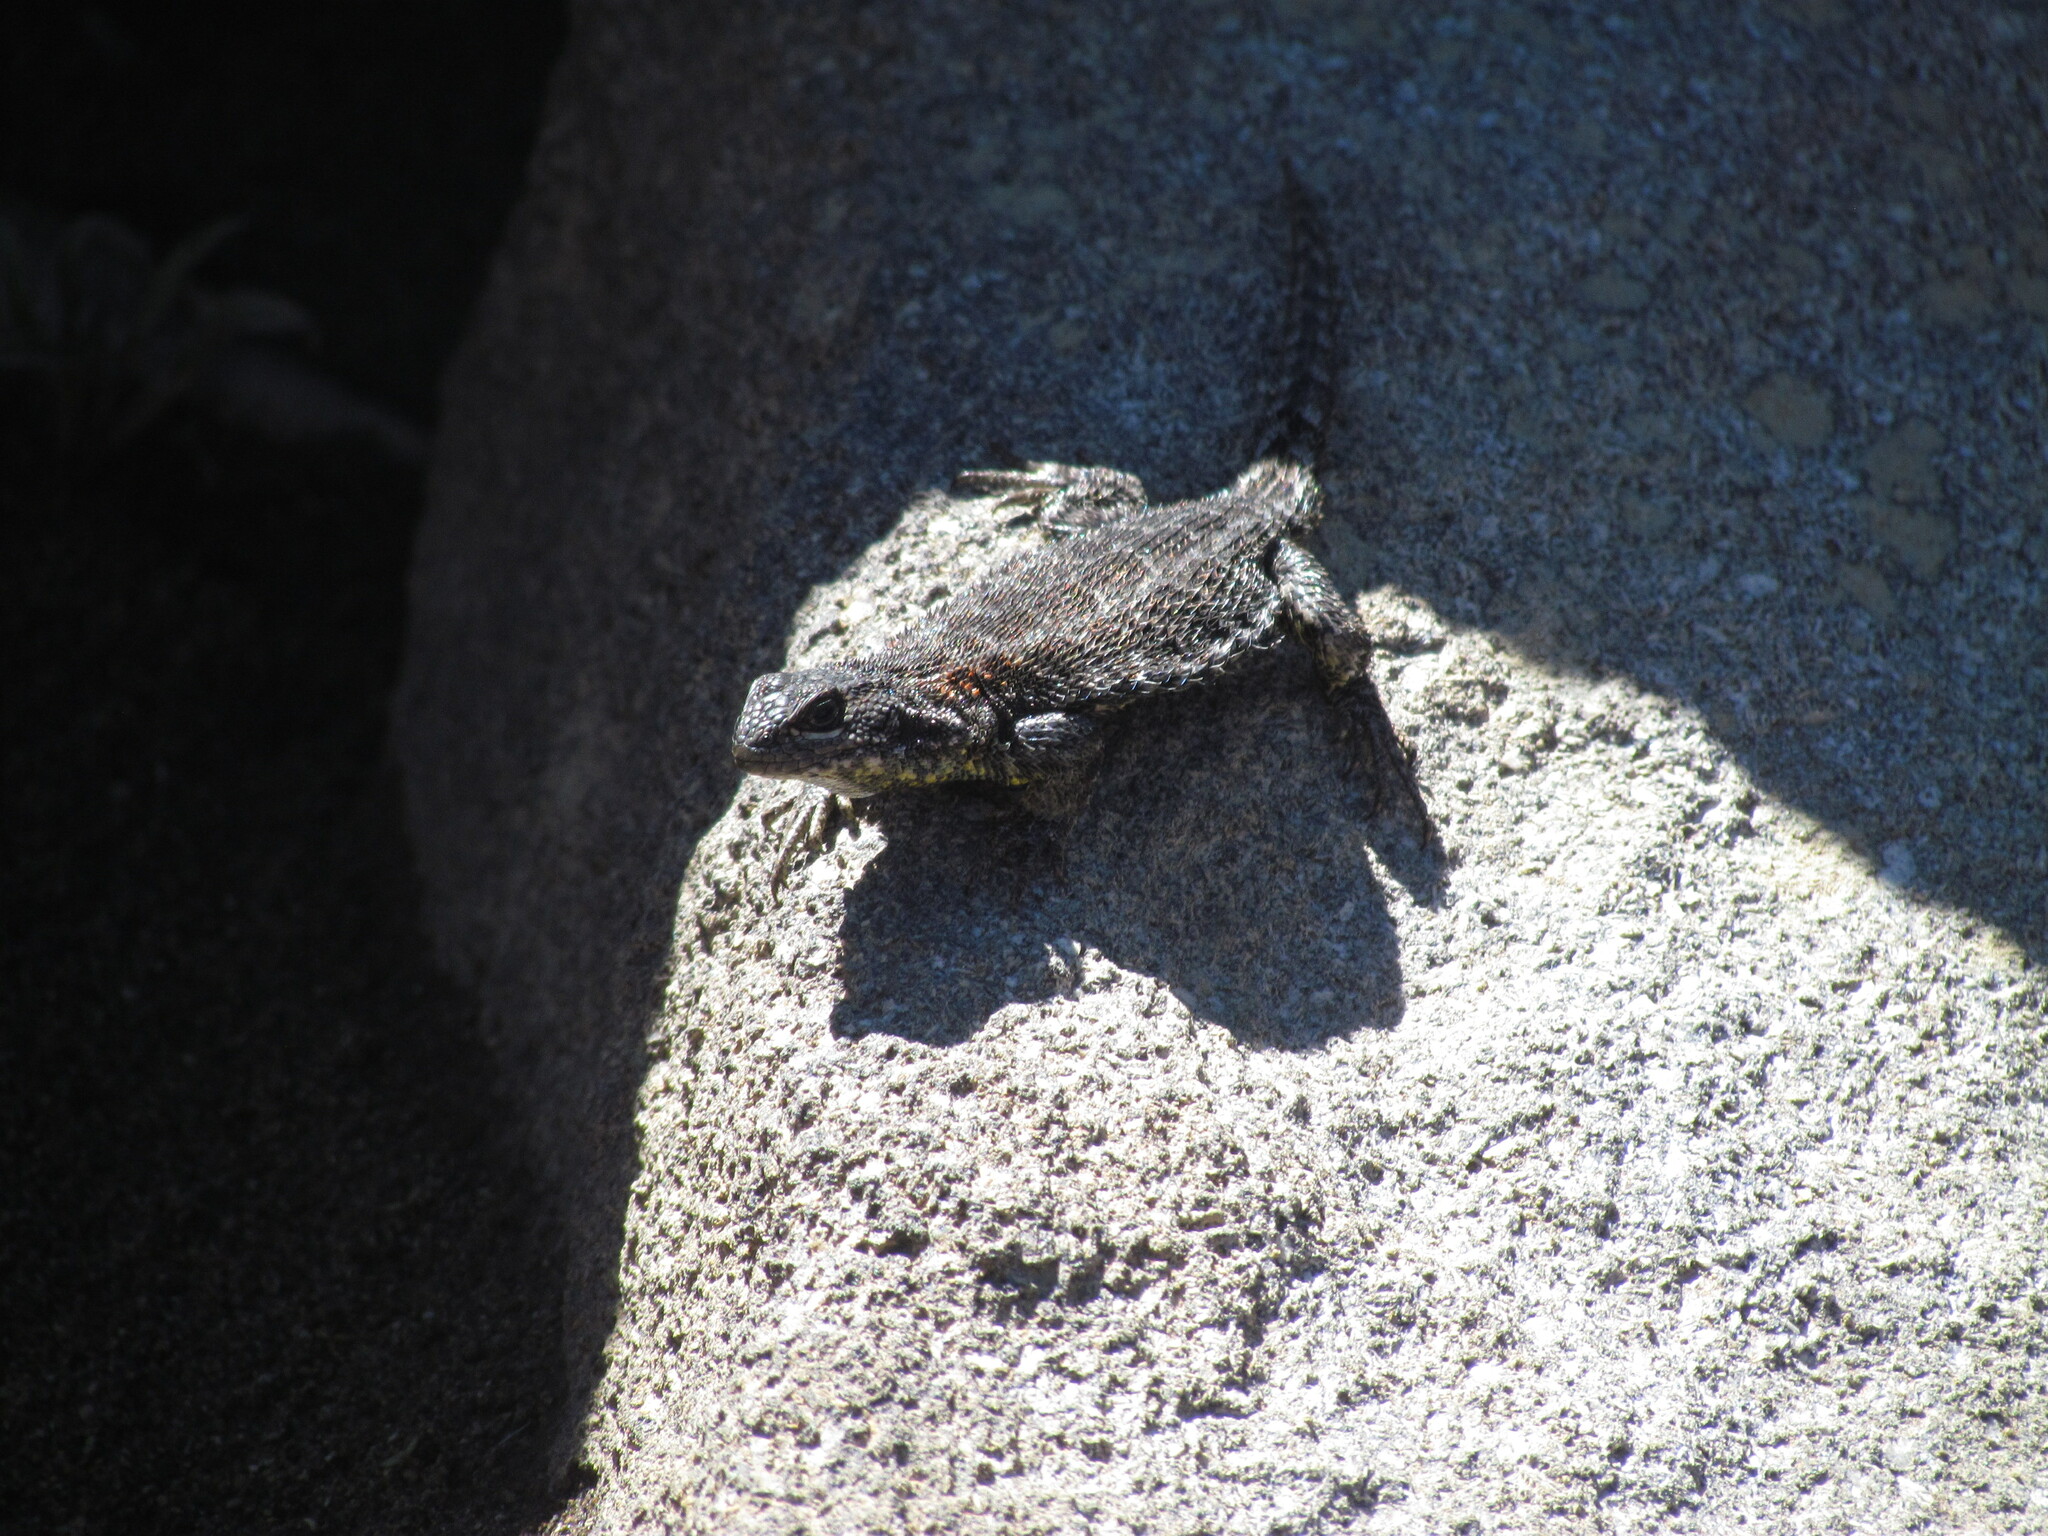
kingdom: Animalia
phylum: Chordata
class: Squamata
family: Liolaemidae
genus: Liolaemus
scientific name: Liolaemus silvanae
